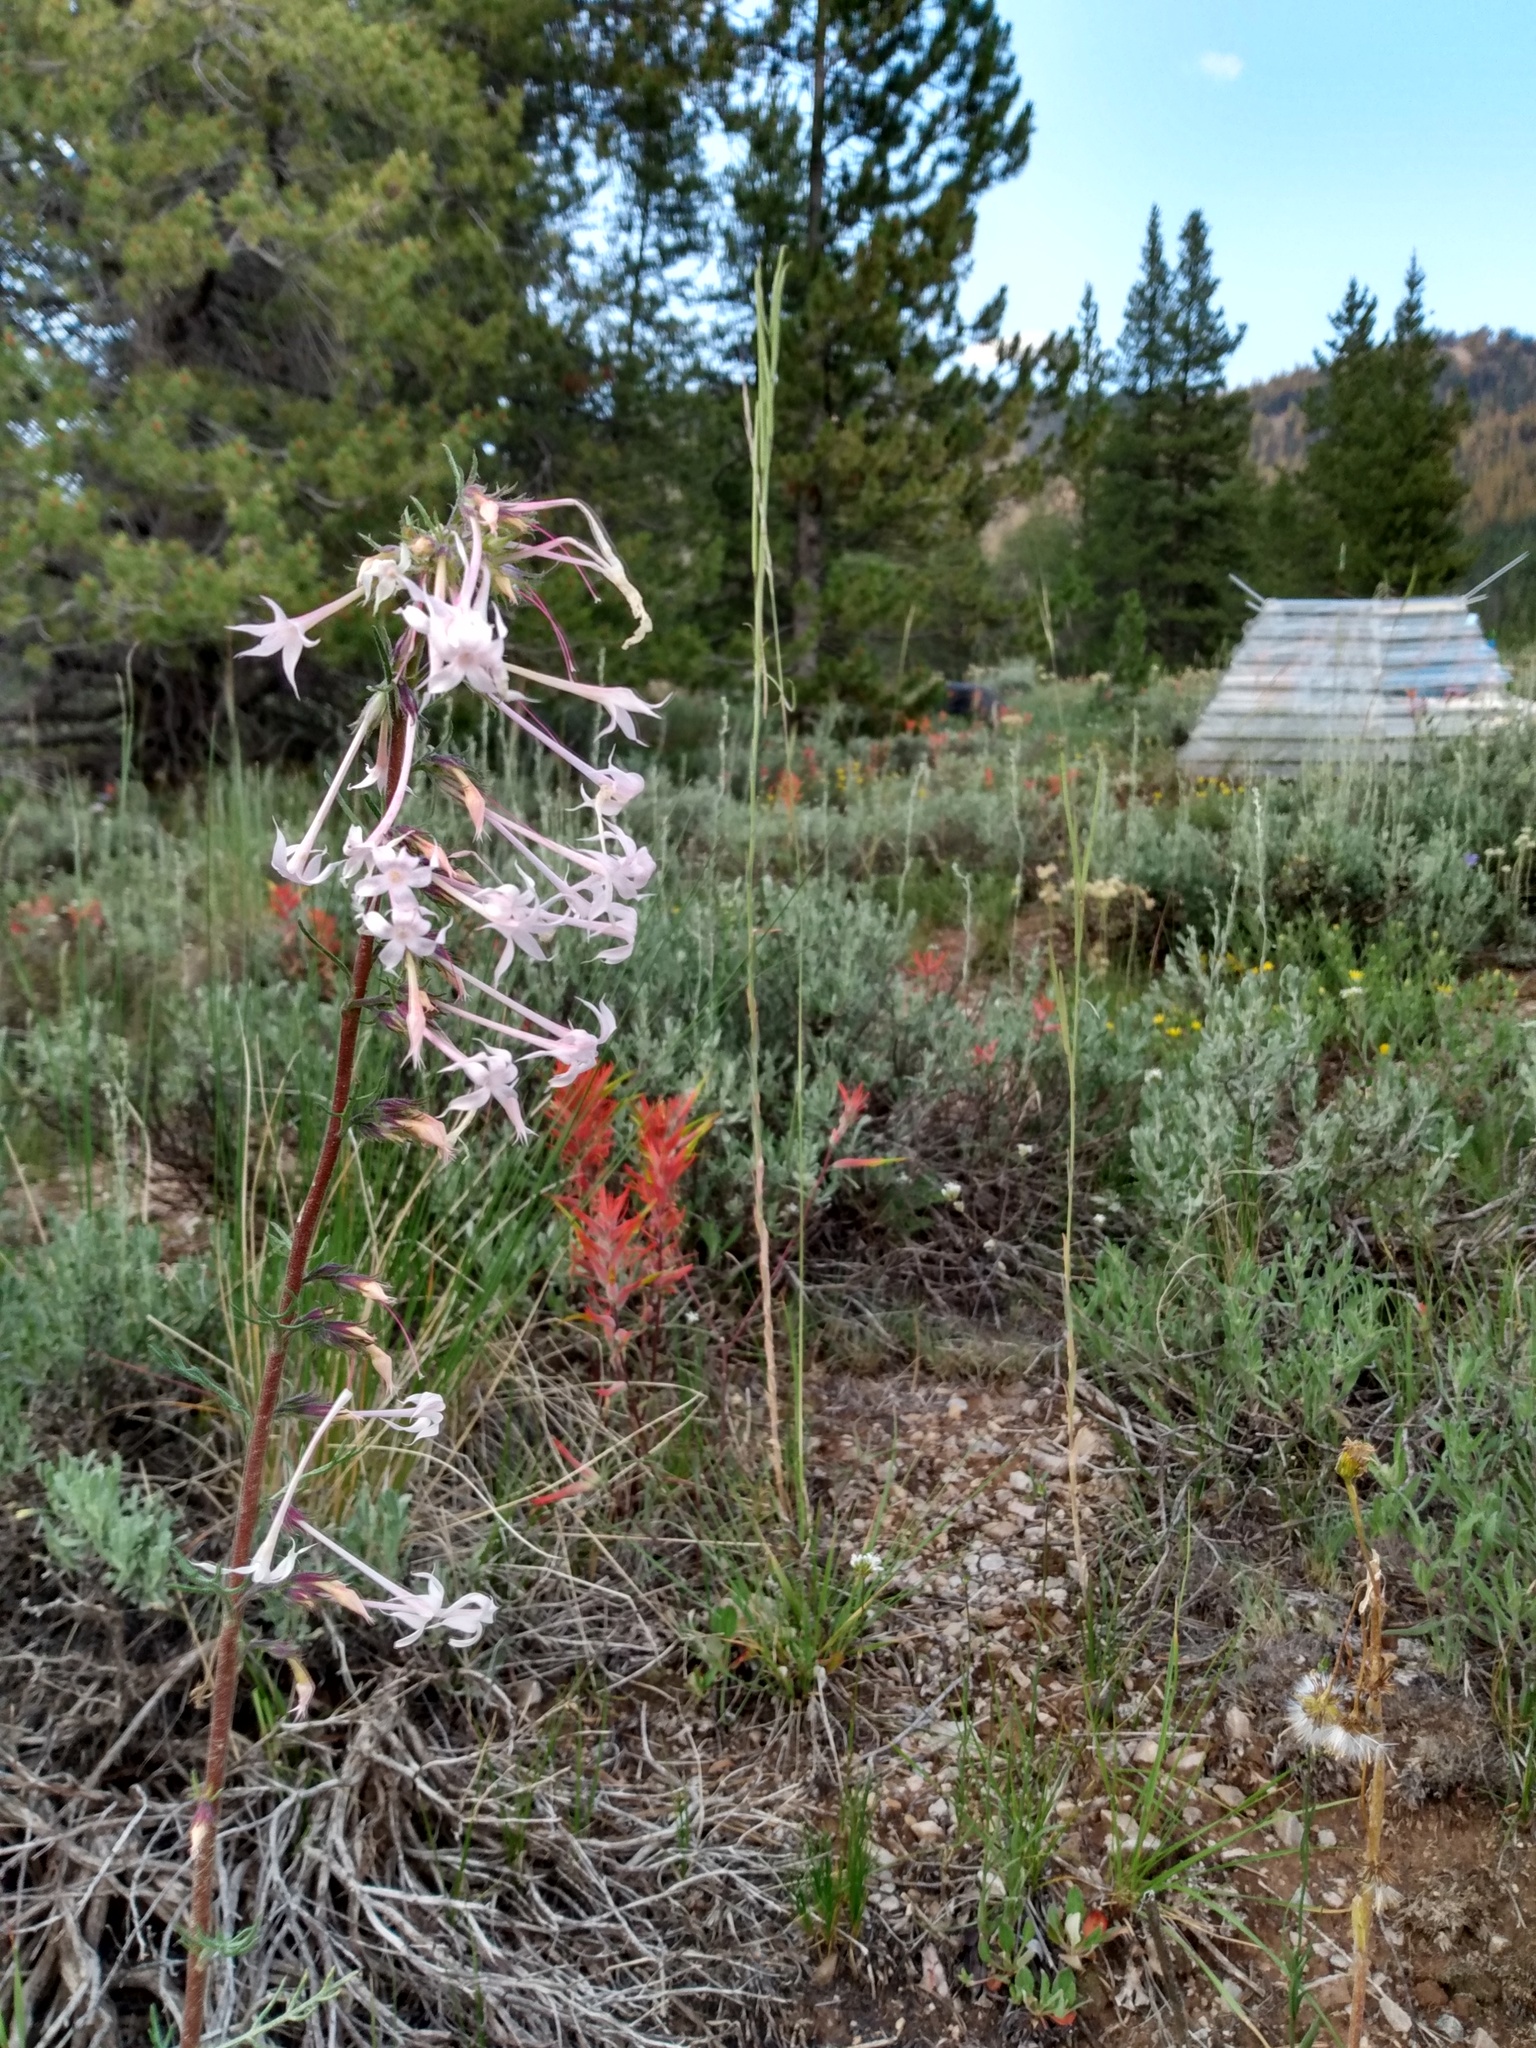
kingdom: Plantae
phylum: Tracheophyta
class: Magnoliopsida
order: Ericales
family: Polemoniaceae
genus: Ipomopsis
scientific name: Ipomopsis tenuituba
